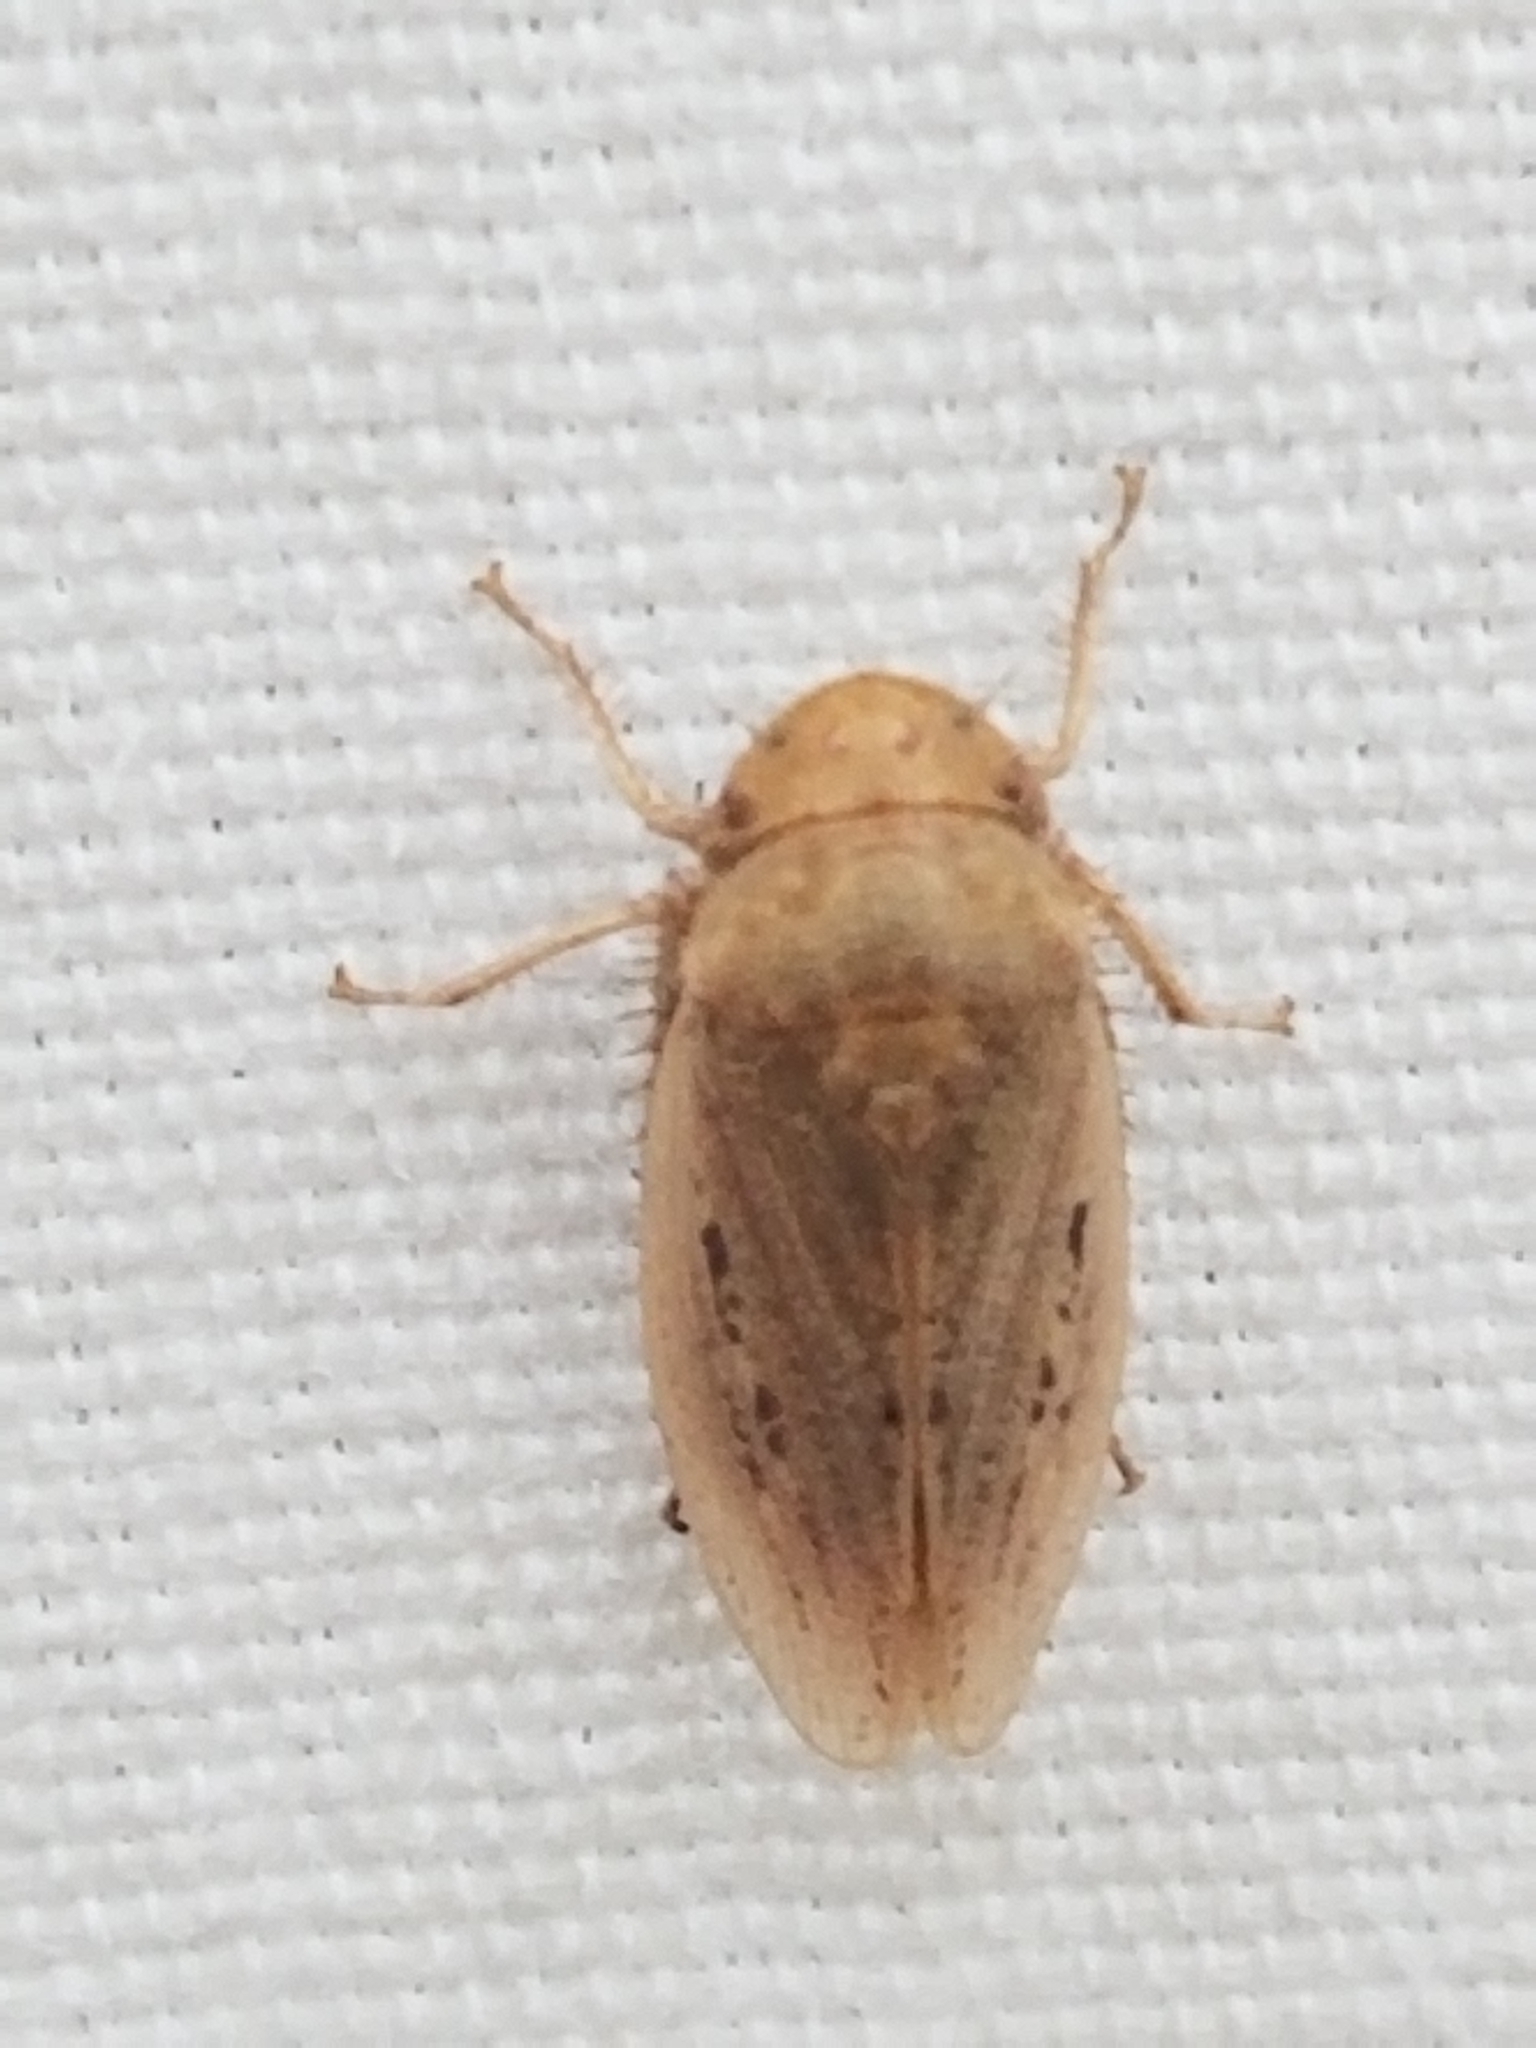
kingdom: Animalia
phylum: Arthropoda
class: Insecta
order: Hemiptera
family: Cicadellidae
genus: Negosiana
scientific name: Negosiana dualis
